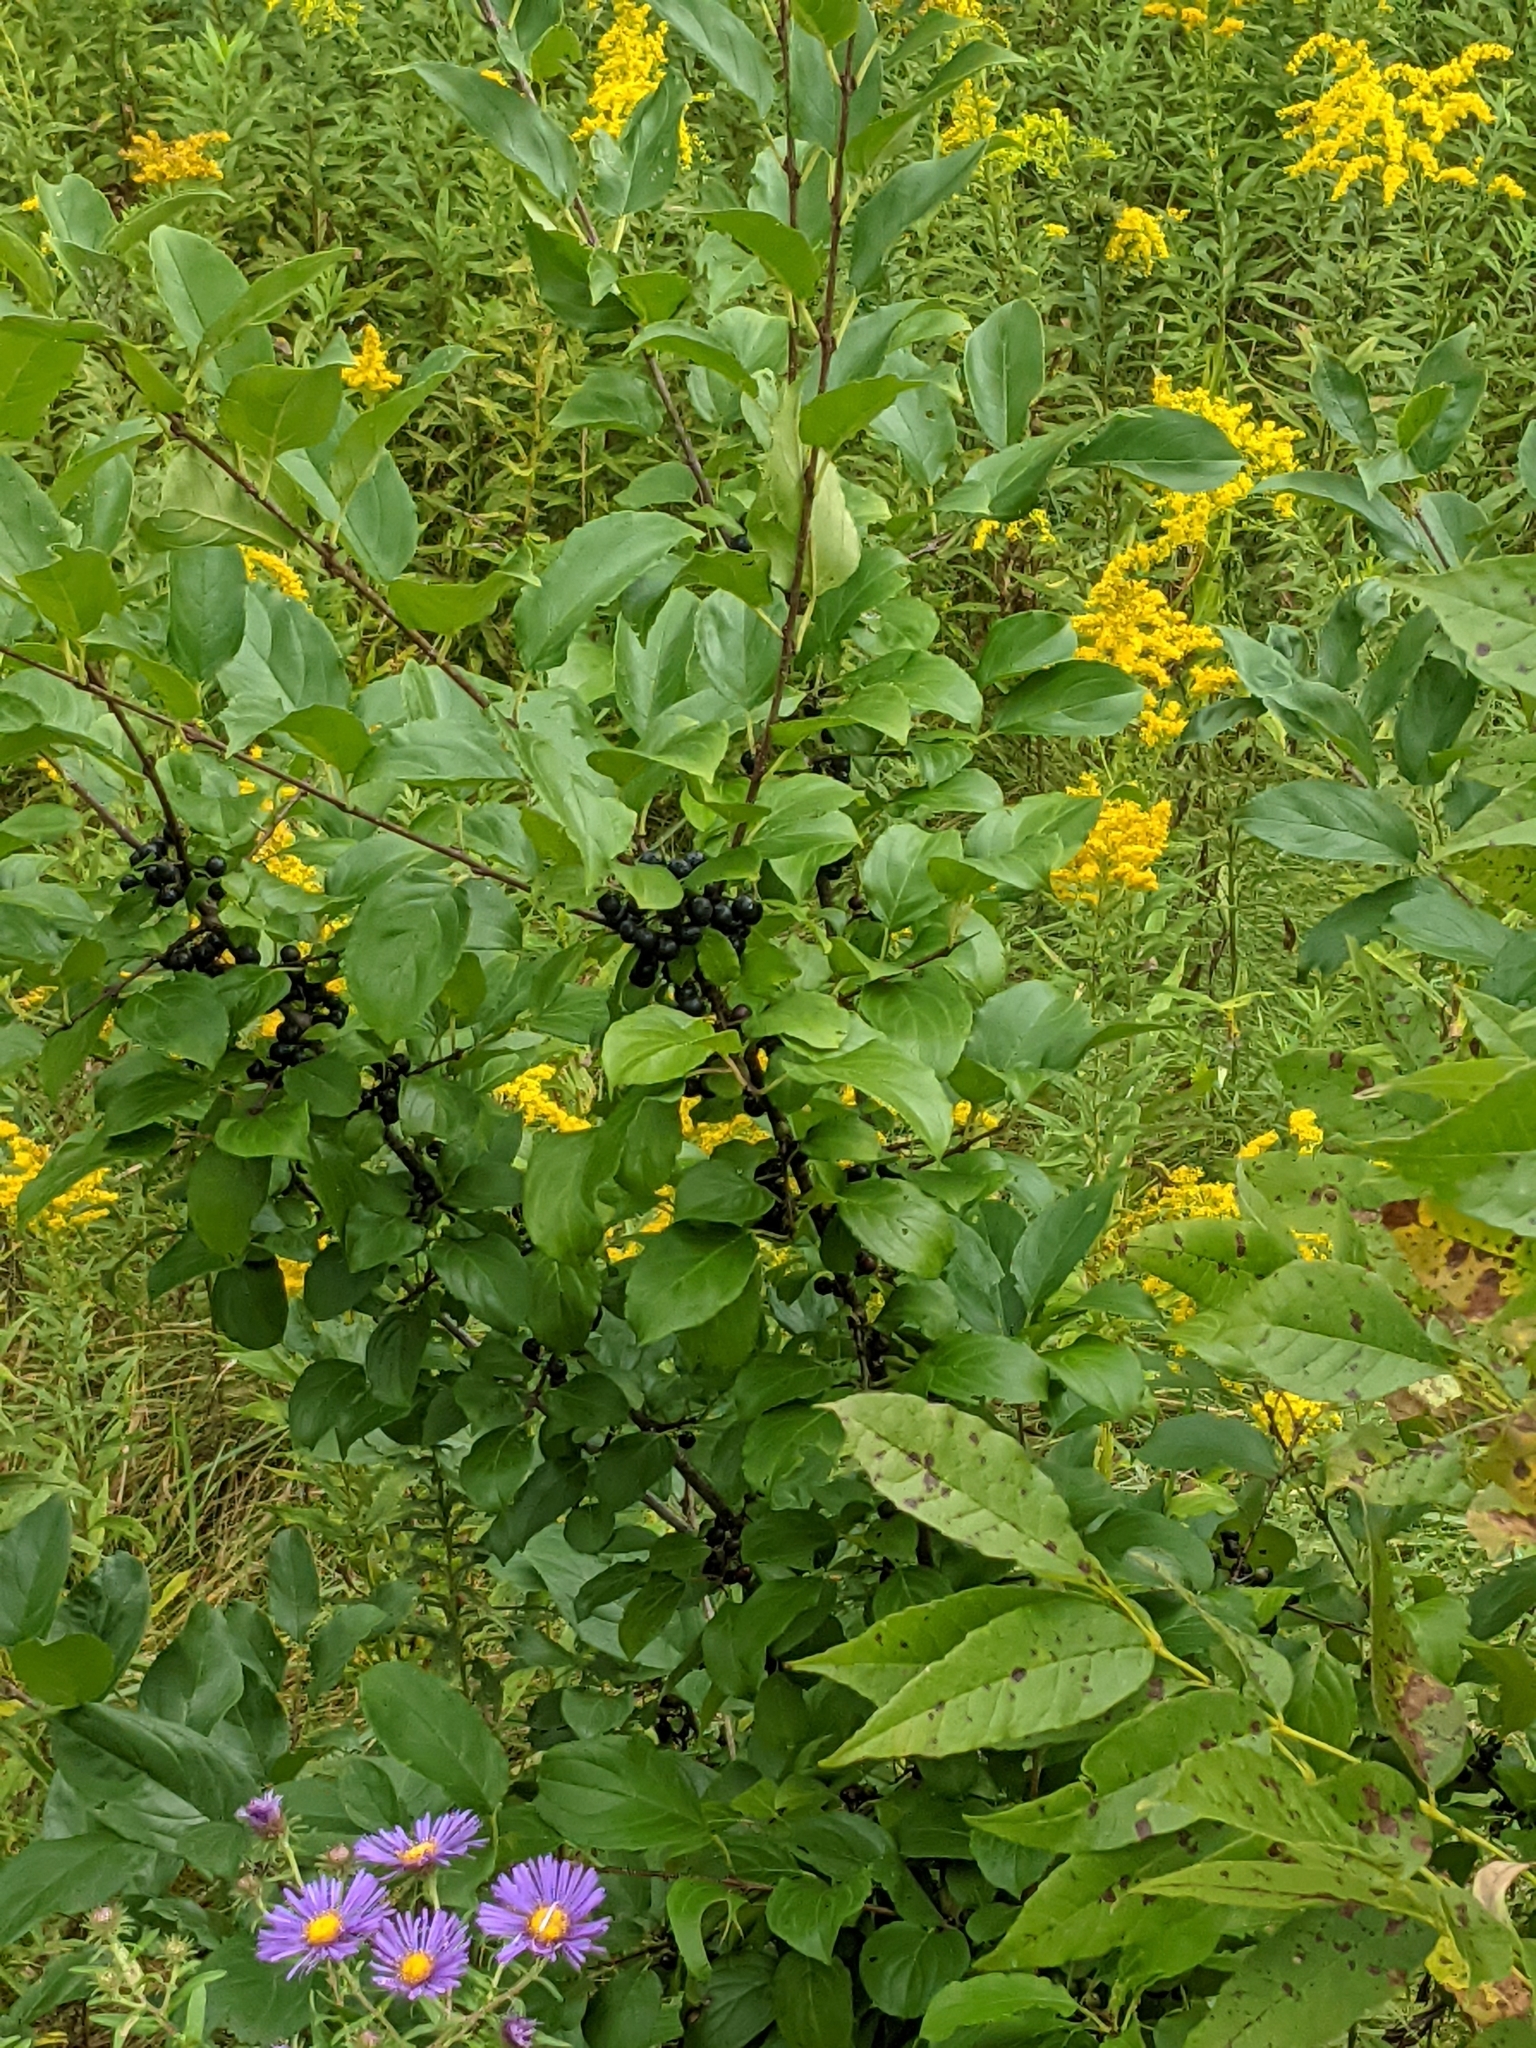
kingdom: Plantae
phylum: Tracheophyta
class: Magnoliopsida
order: Rosales
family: Rhamnaceae
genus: Rhamnus
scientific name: Rhamnus cathartica
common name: Common buckthorn
